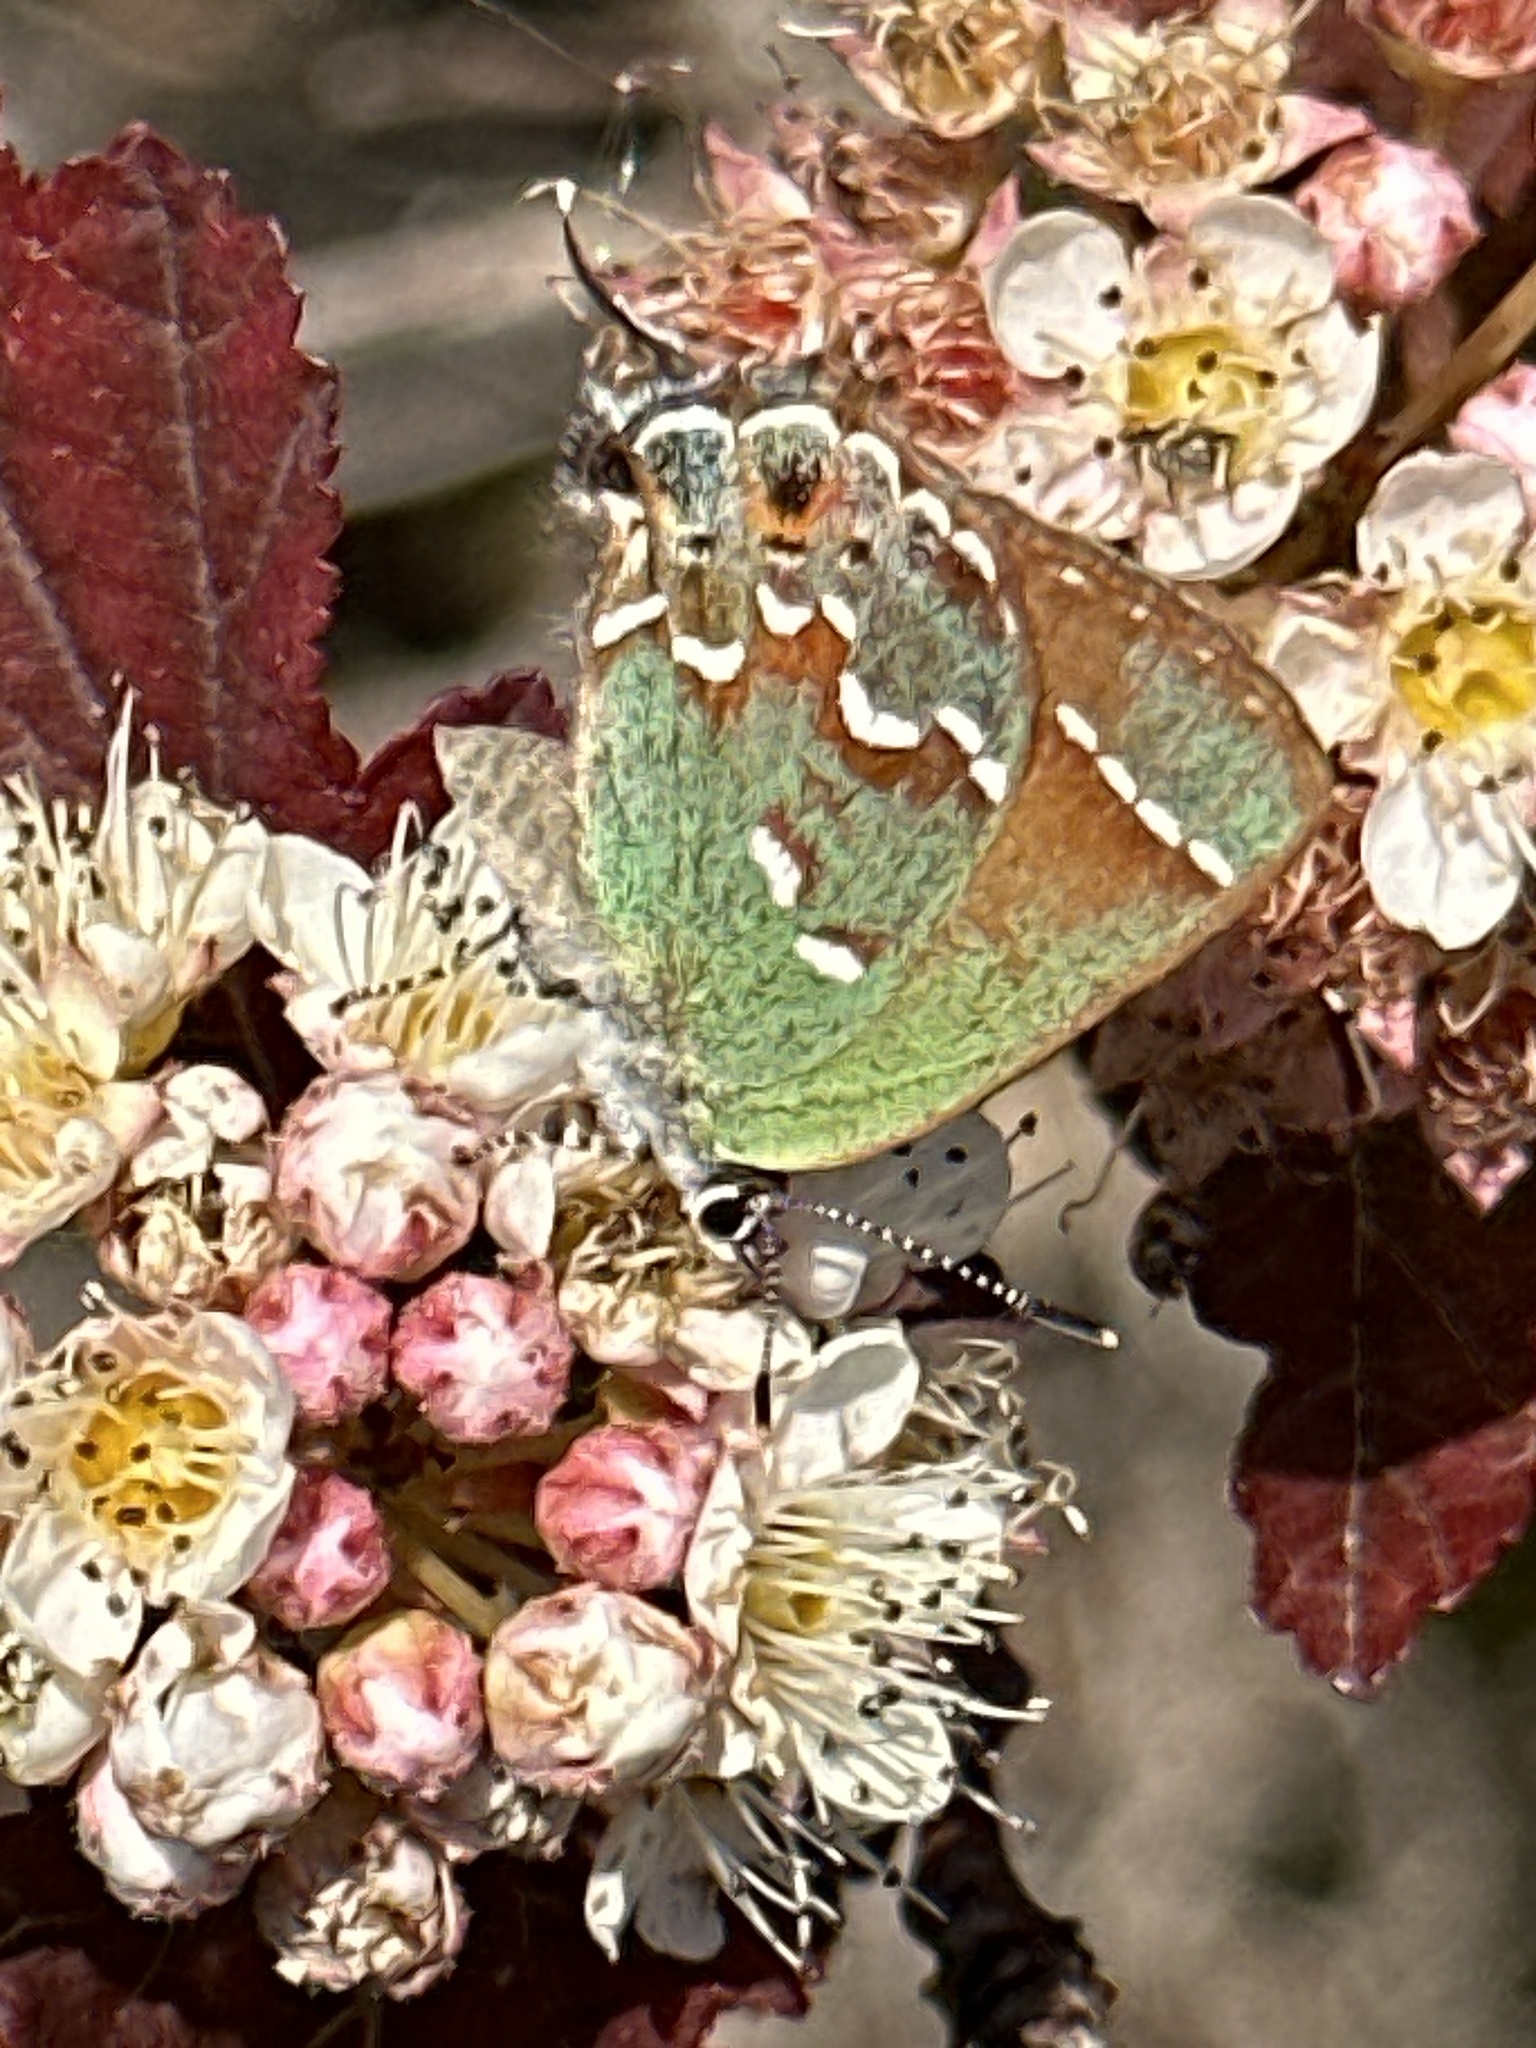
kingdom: Animalia
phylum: Arthropoda
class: Insecta
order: Lepidoptera
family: Lycaenidae
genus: Mitoura
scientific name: Mitoura gryneus
